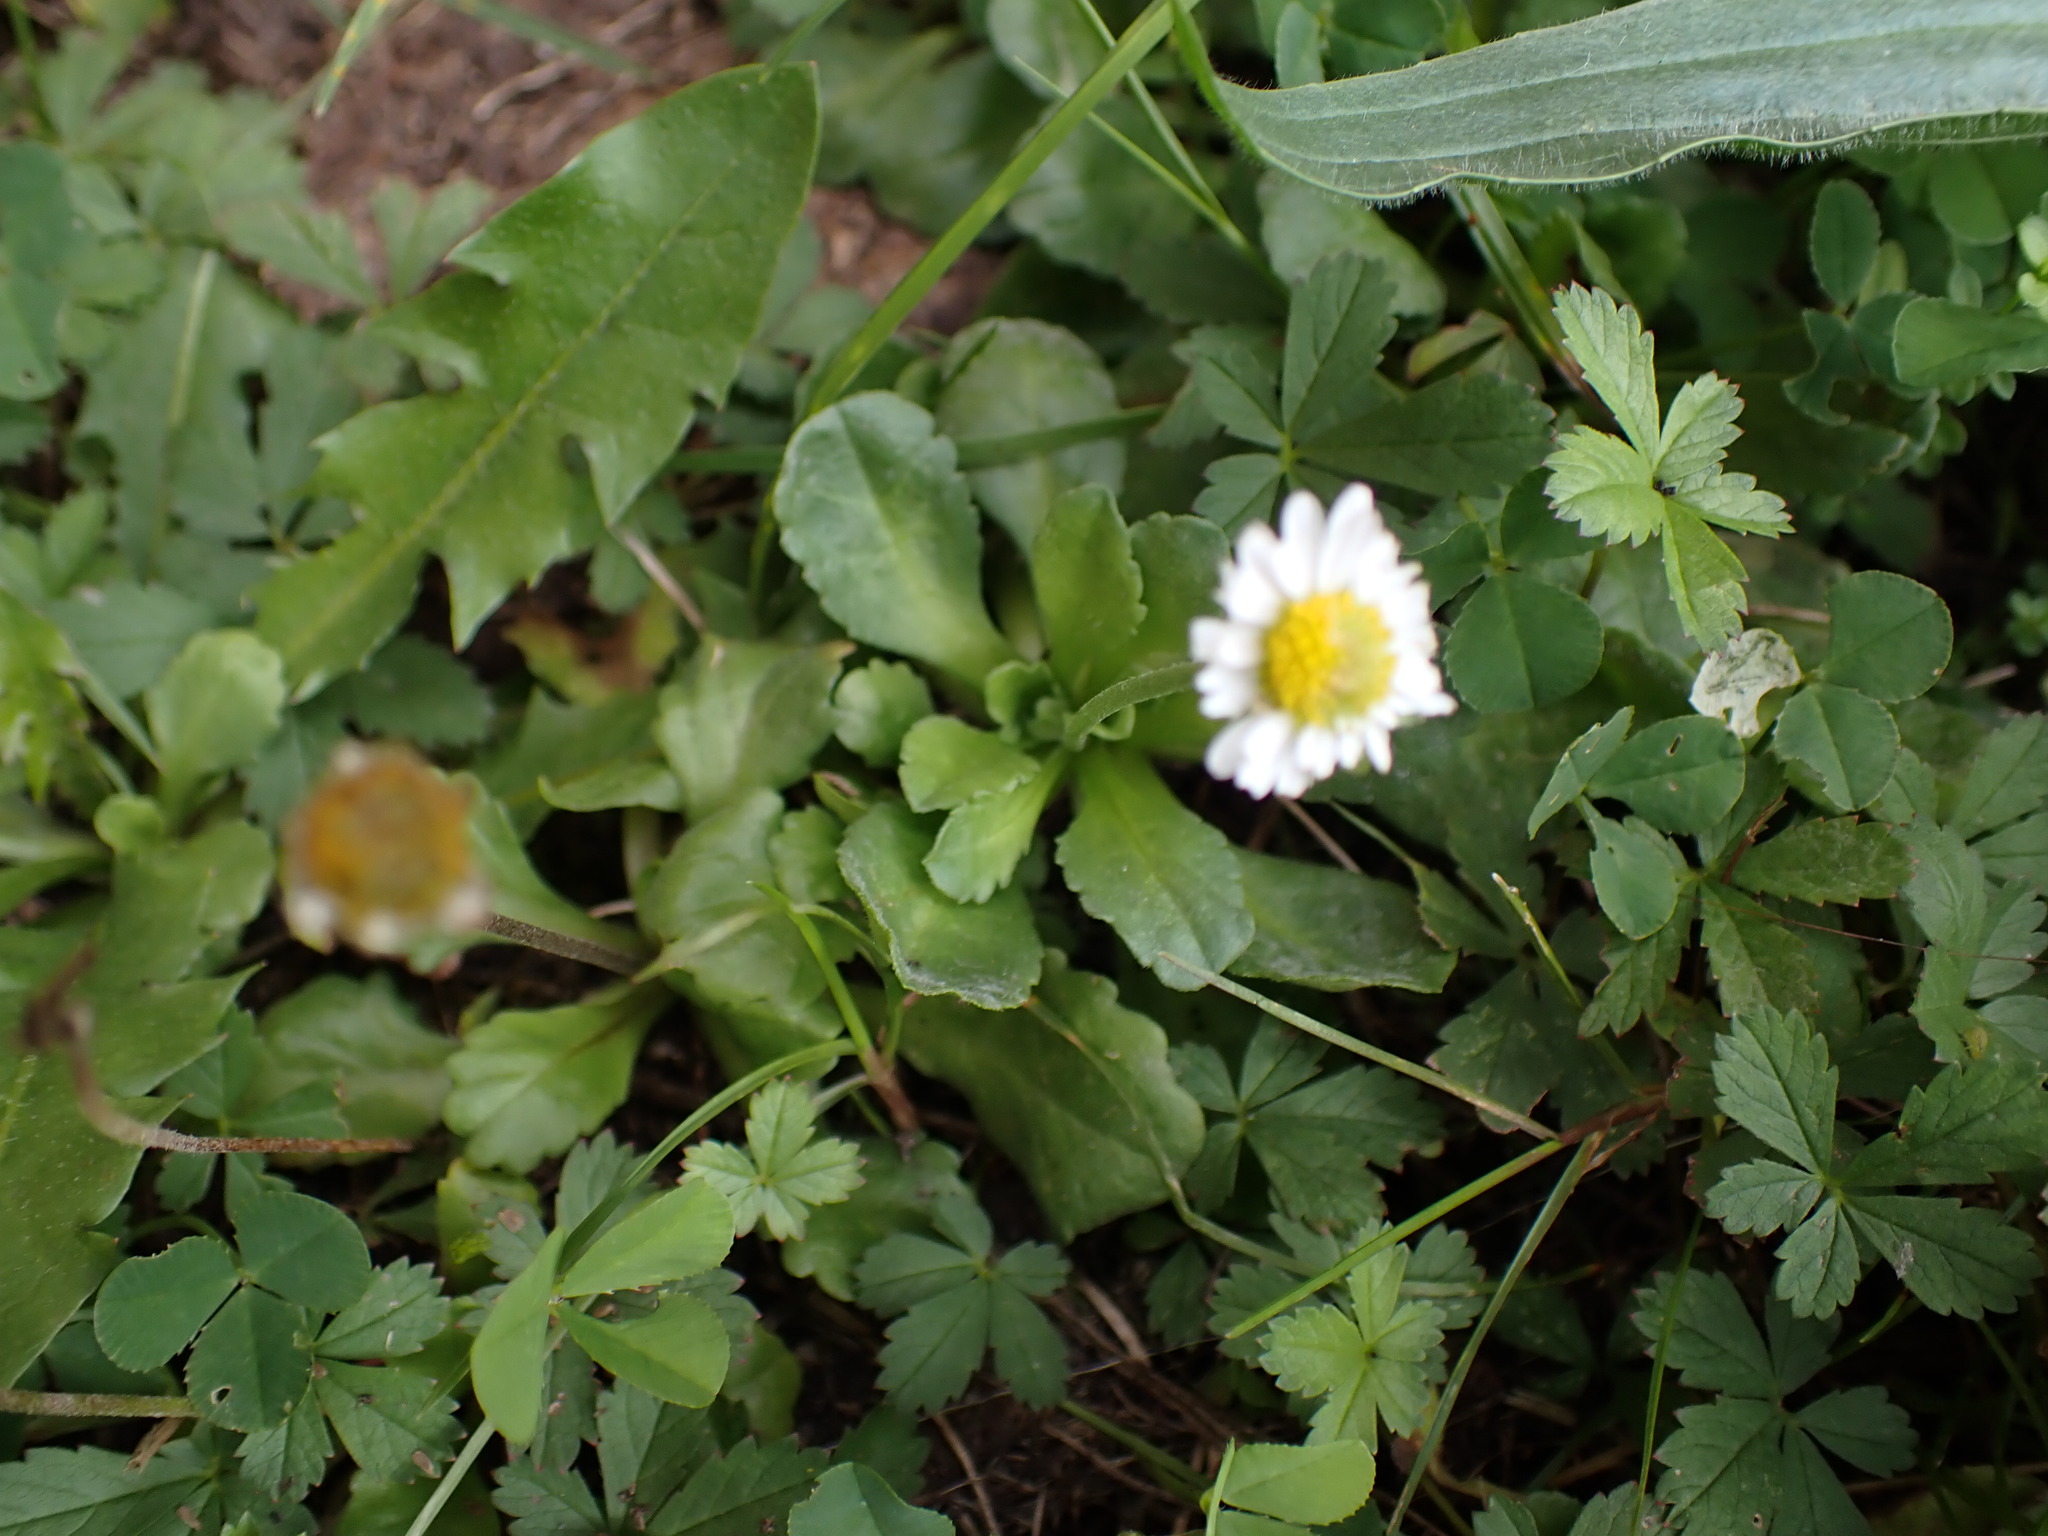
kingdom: Plantae
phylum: Tracheophyta
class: Magnoliopsida
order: Asterales
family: Asteraceae
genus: Bellis
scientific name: Bellis perennis
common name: Lawndaisy
